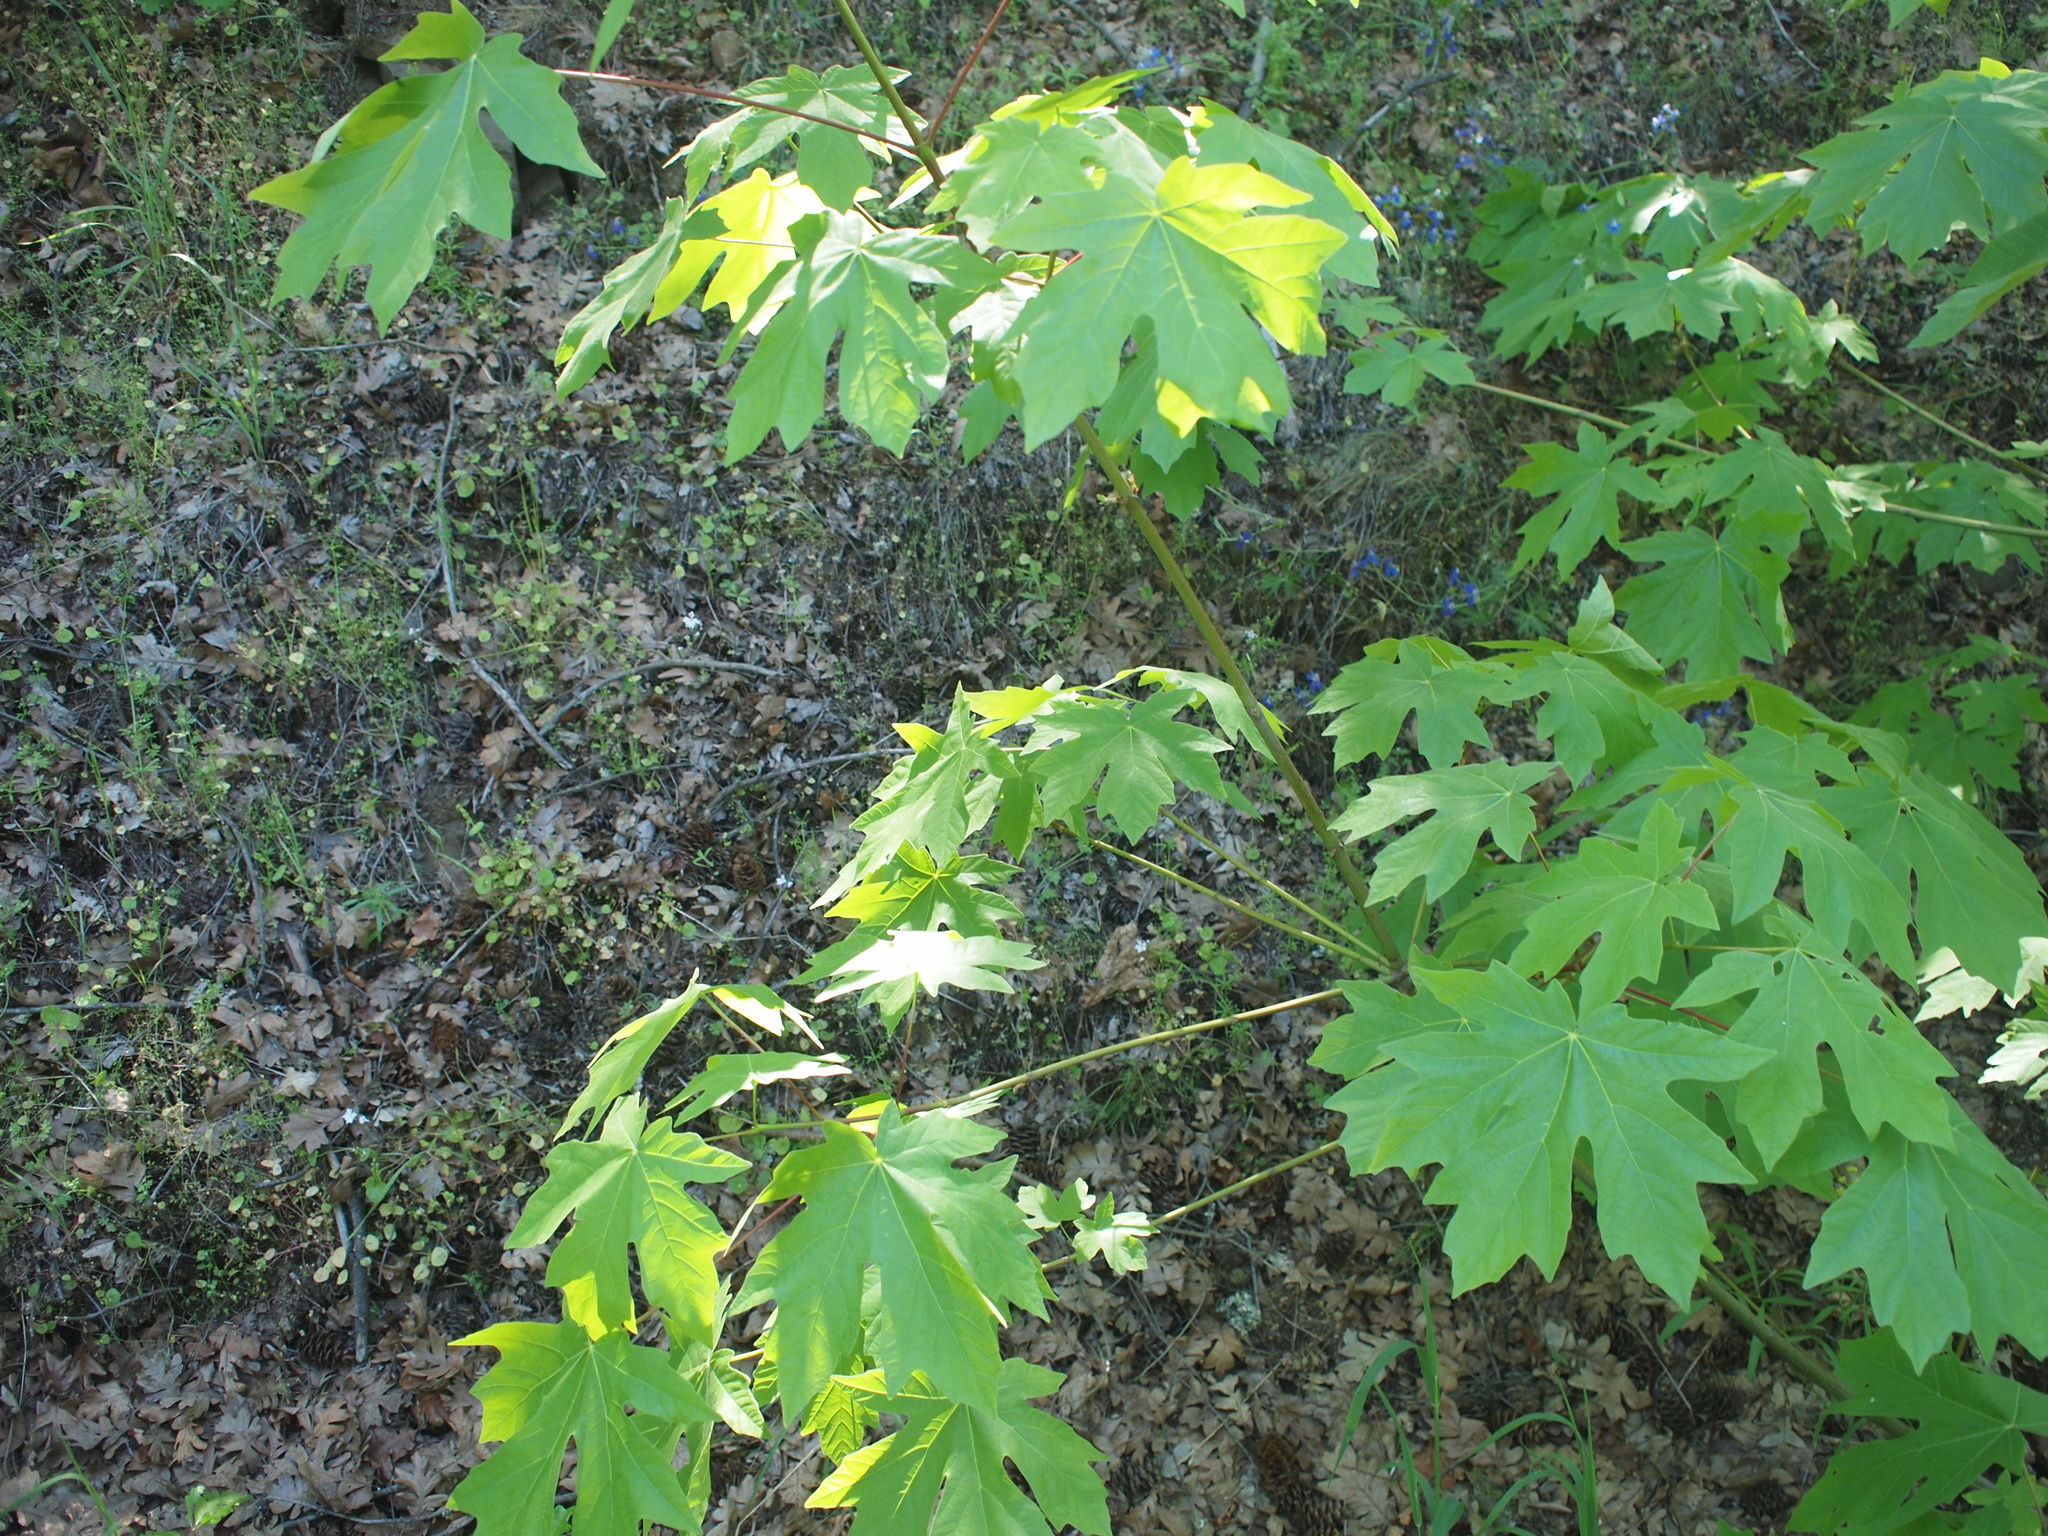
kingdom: Plantae
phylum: Tracheophyta
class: Magnoliopsida
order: Sapindales
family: Sapindaceae
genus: Acer
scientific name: Acer macrophyllum
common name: Oregon maple
